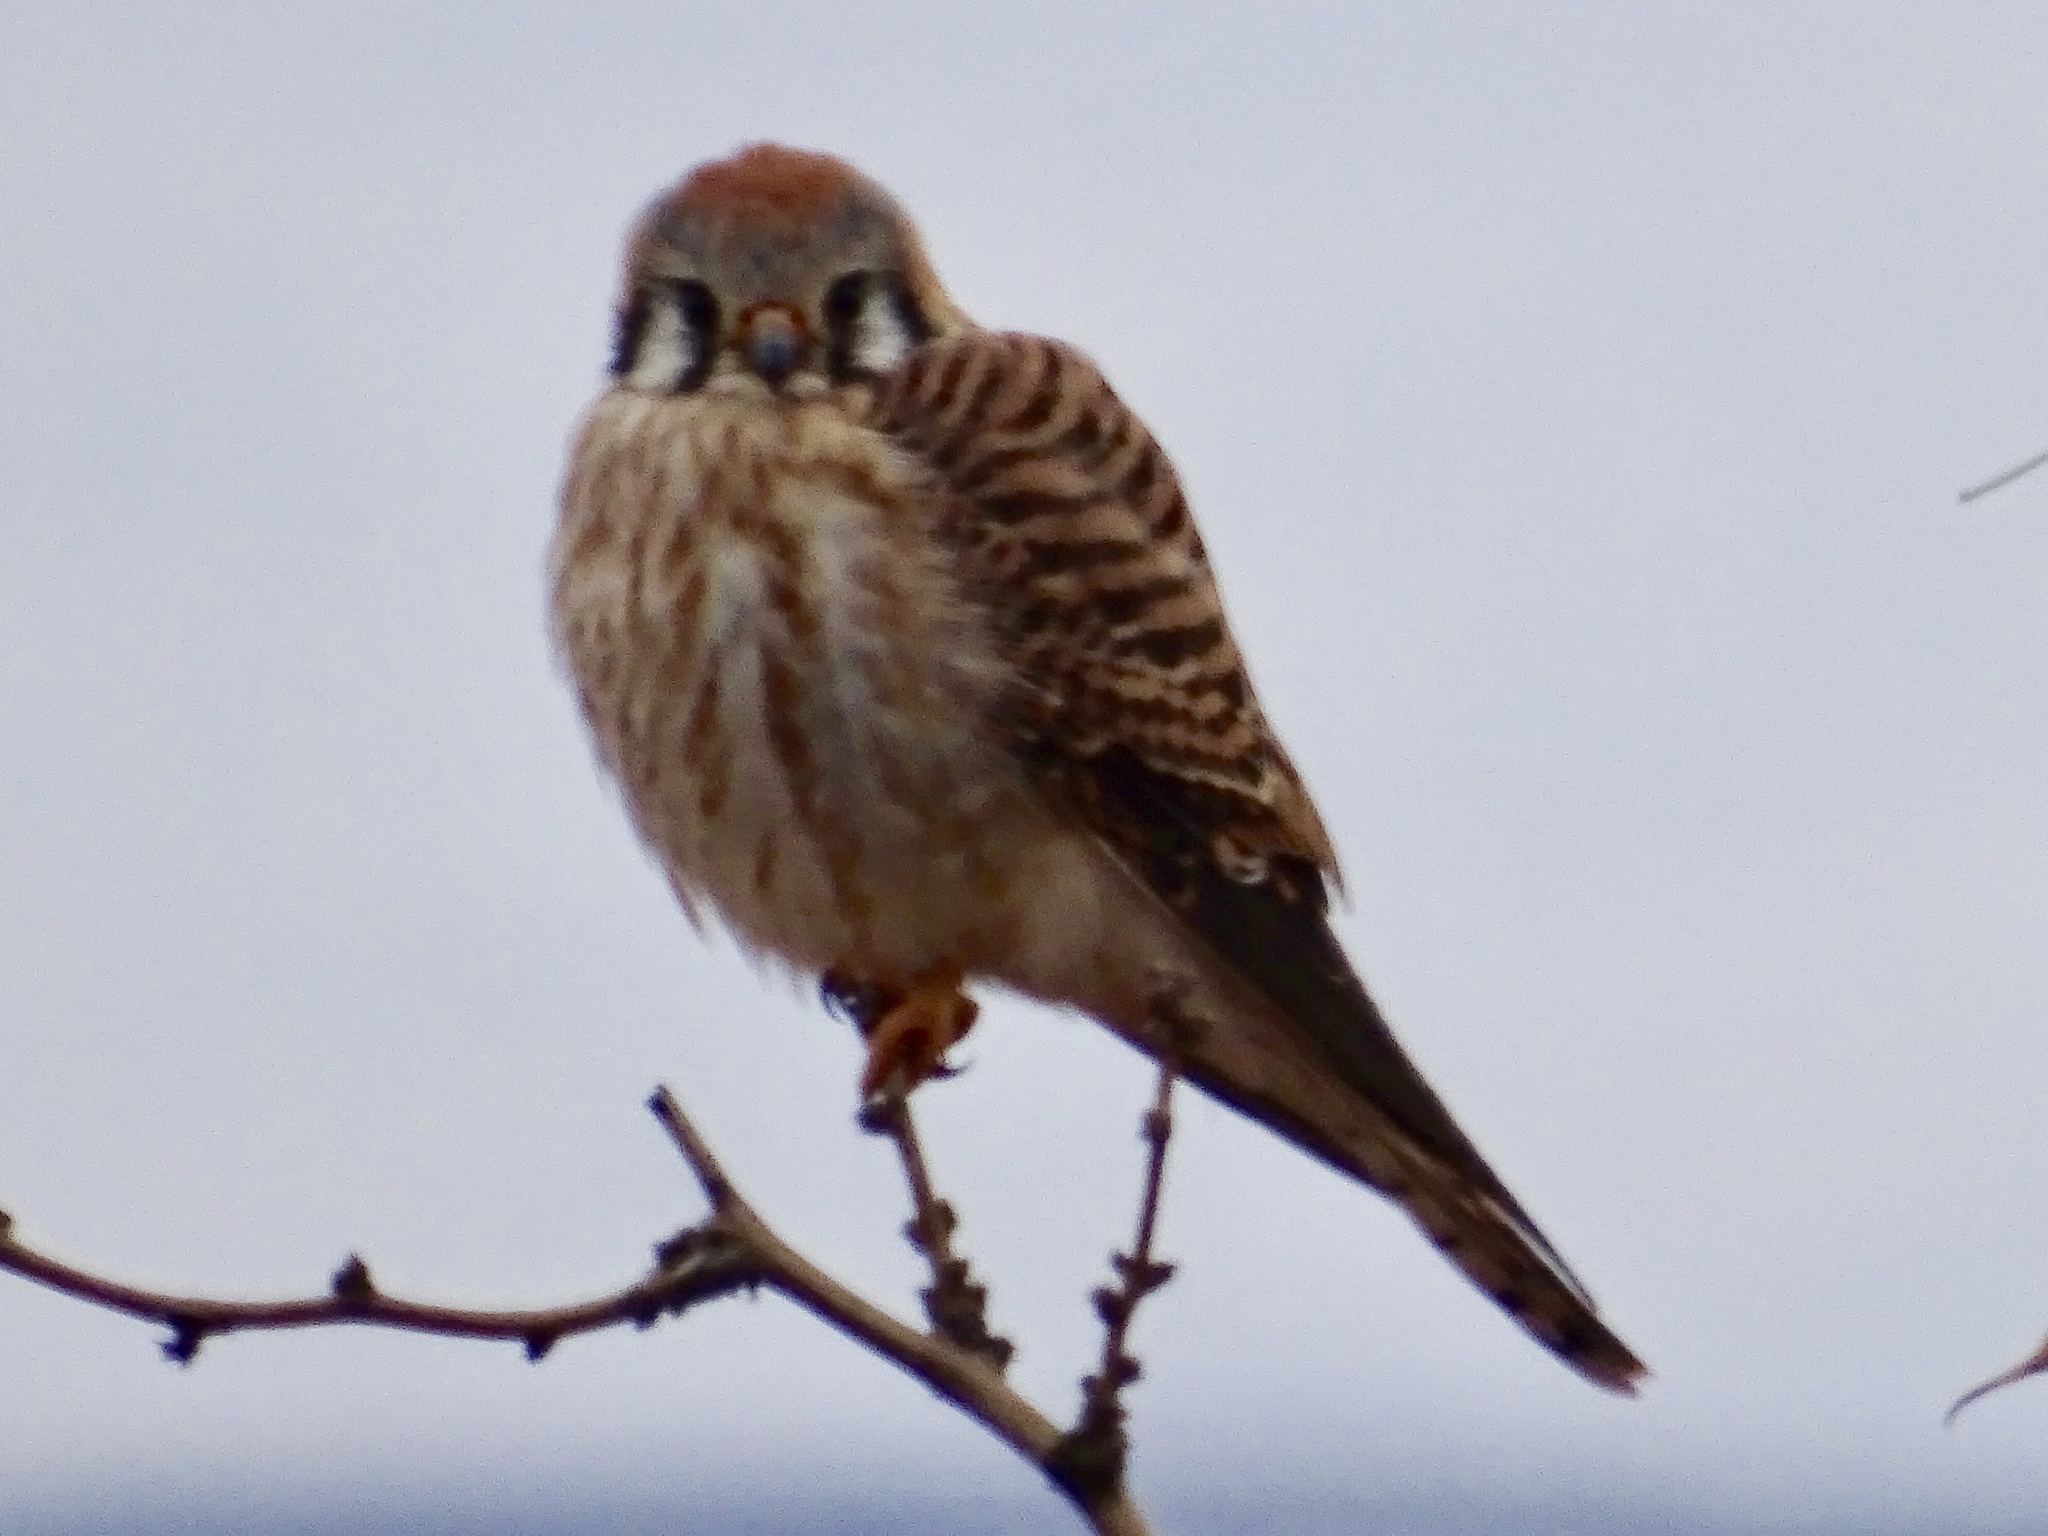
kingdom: Animalia
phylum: Chordata
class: Aves
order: Falconiformes
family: Falconidae
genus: Falco
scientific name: Falco sparverius
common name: American kestrel
